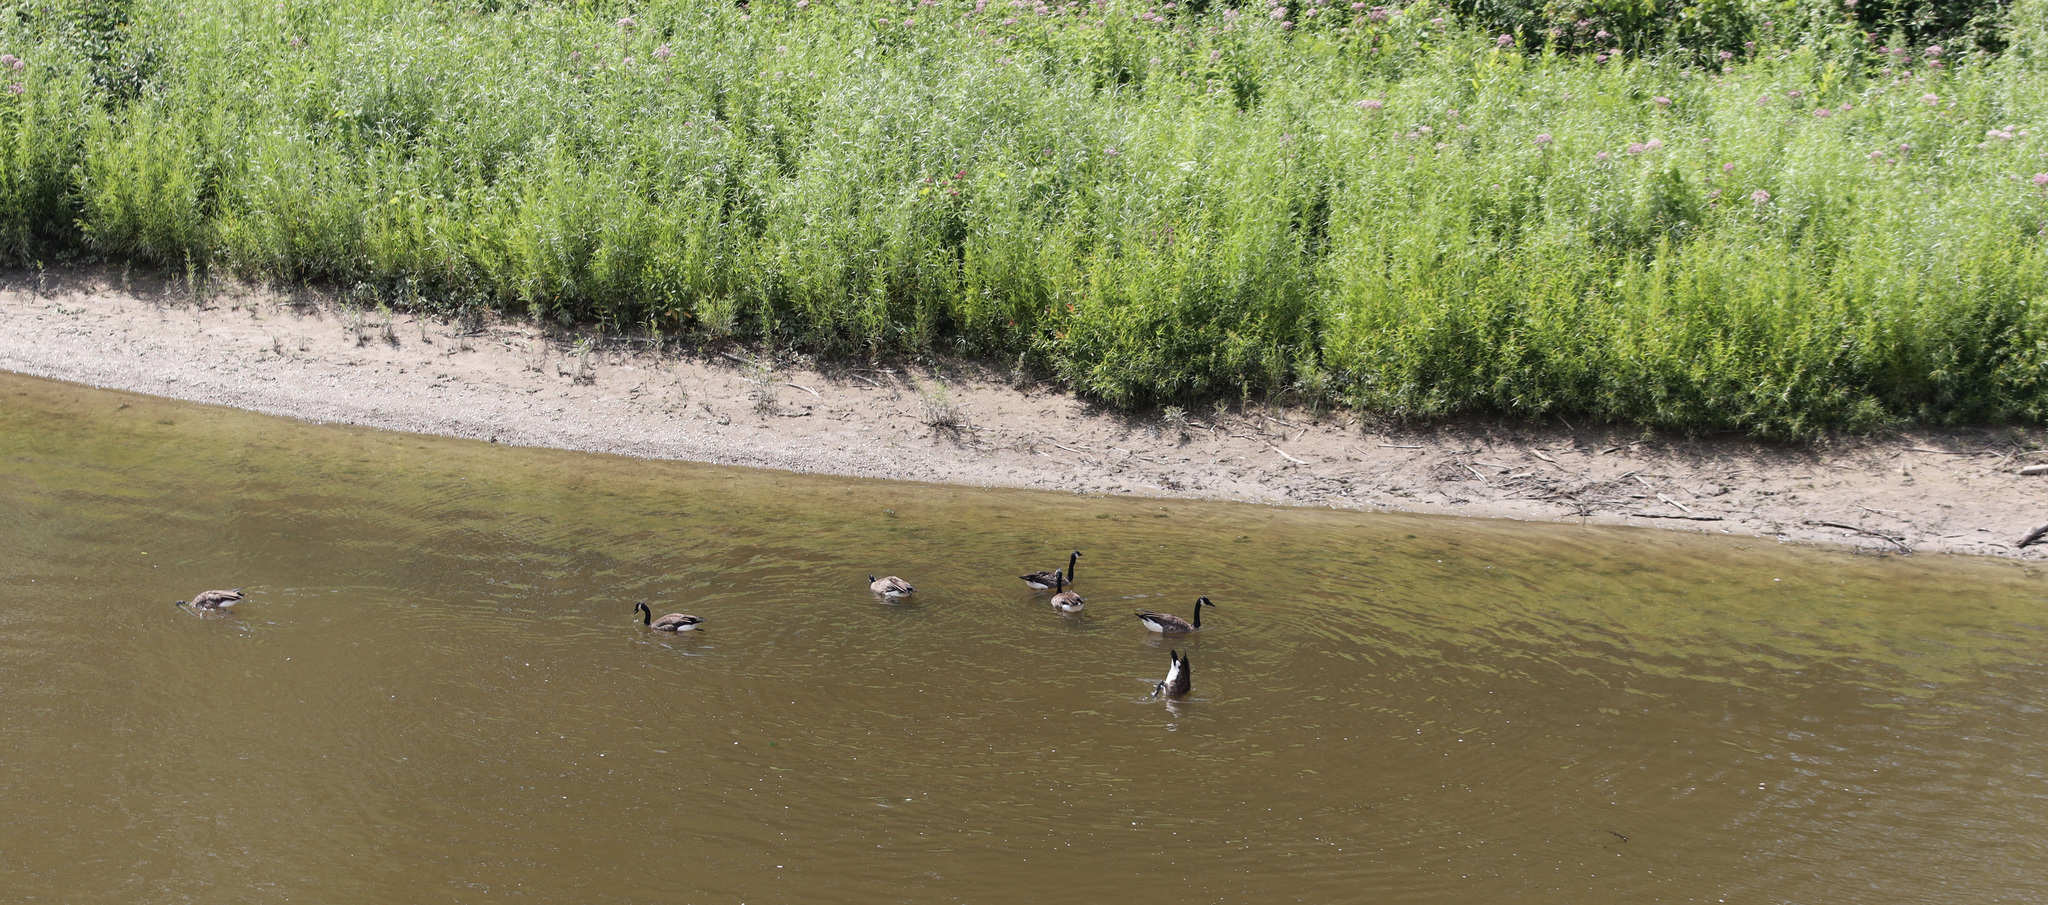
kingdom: Animalia
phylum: Chordata
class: Aves
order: Anseriformes
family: Anatidae
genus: Branta
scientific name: Branta canadensis
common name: Canada goose
